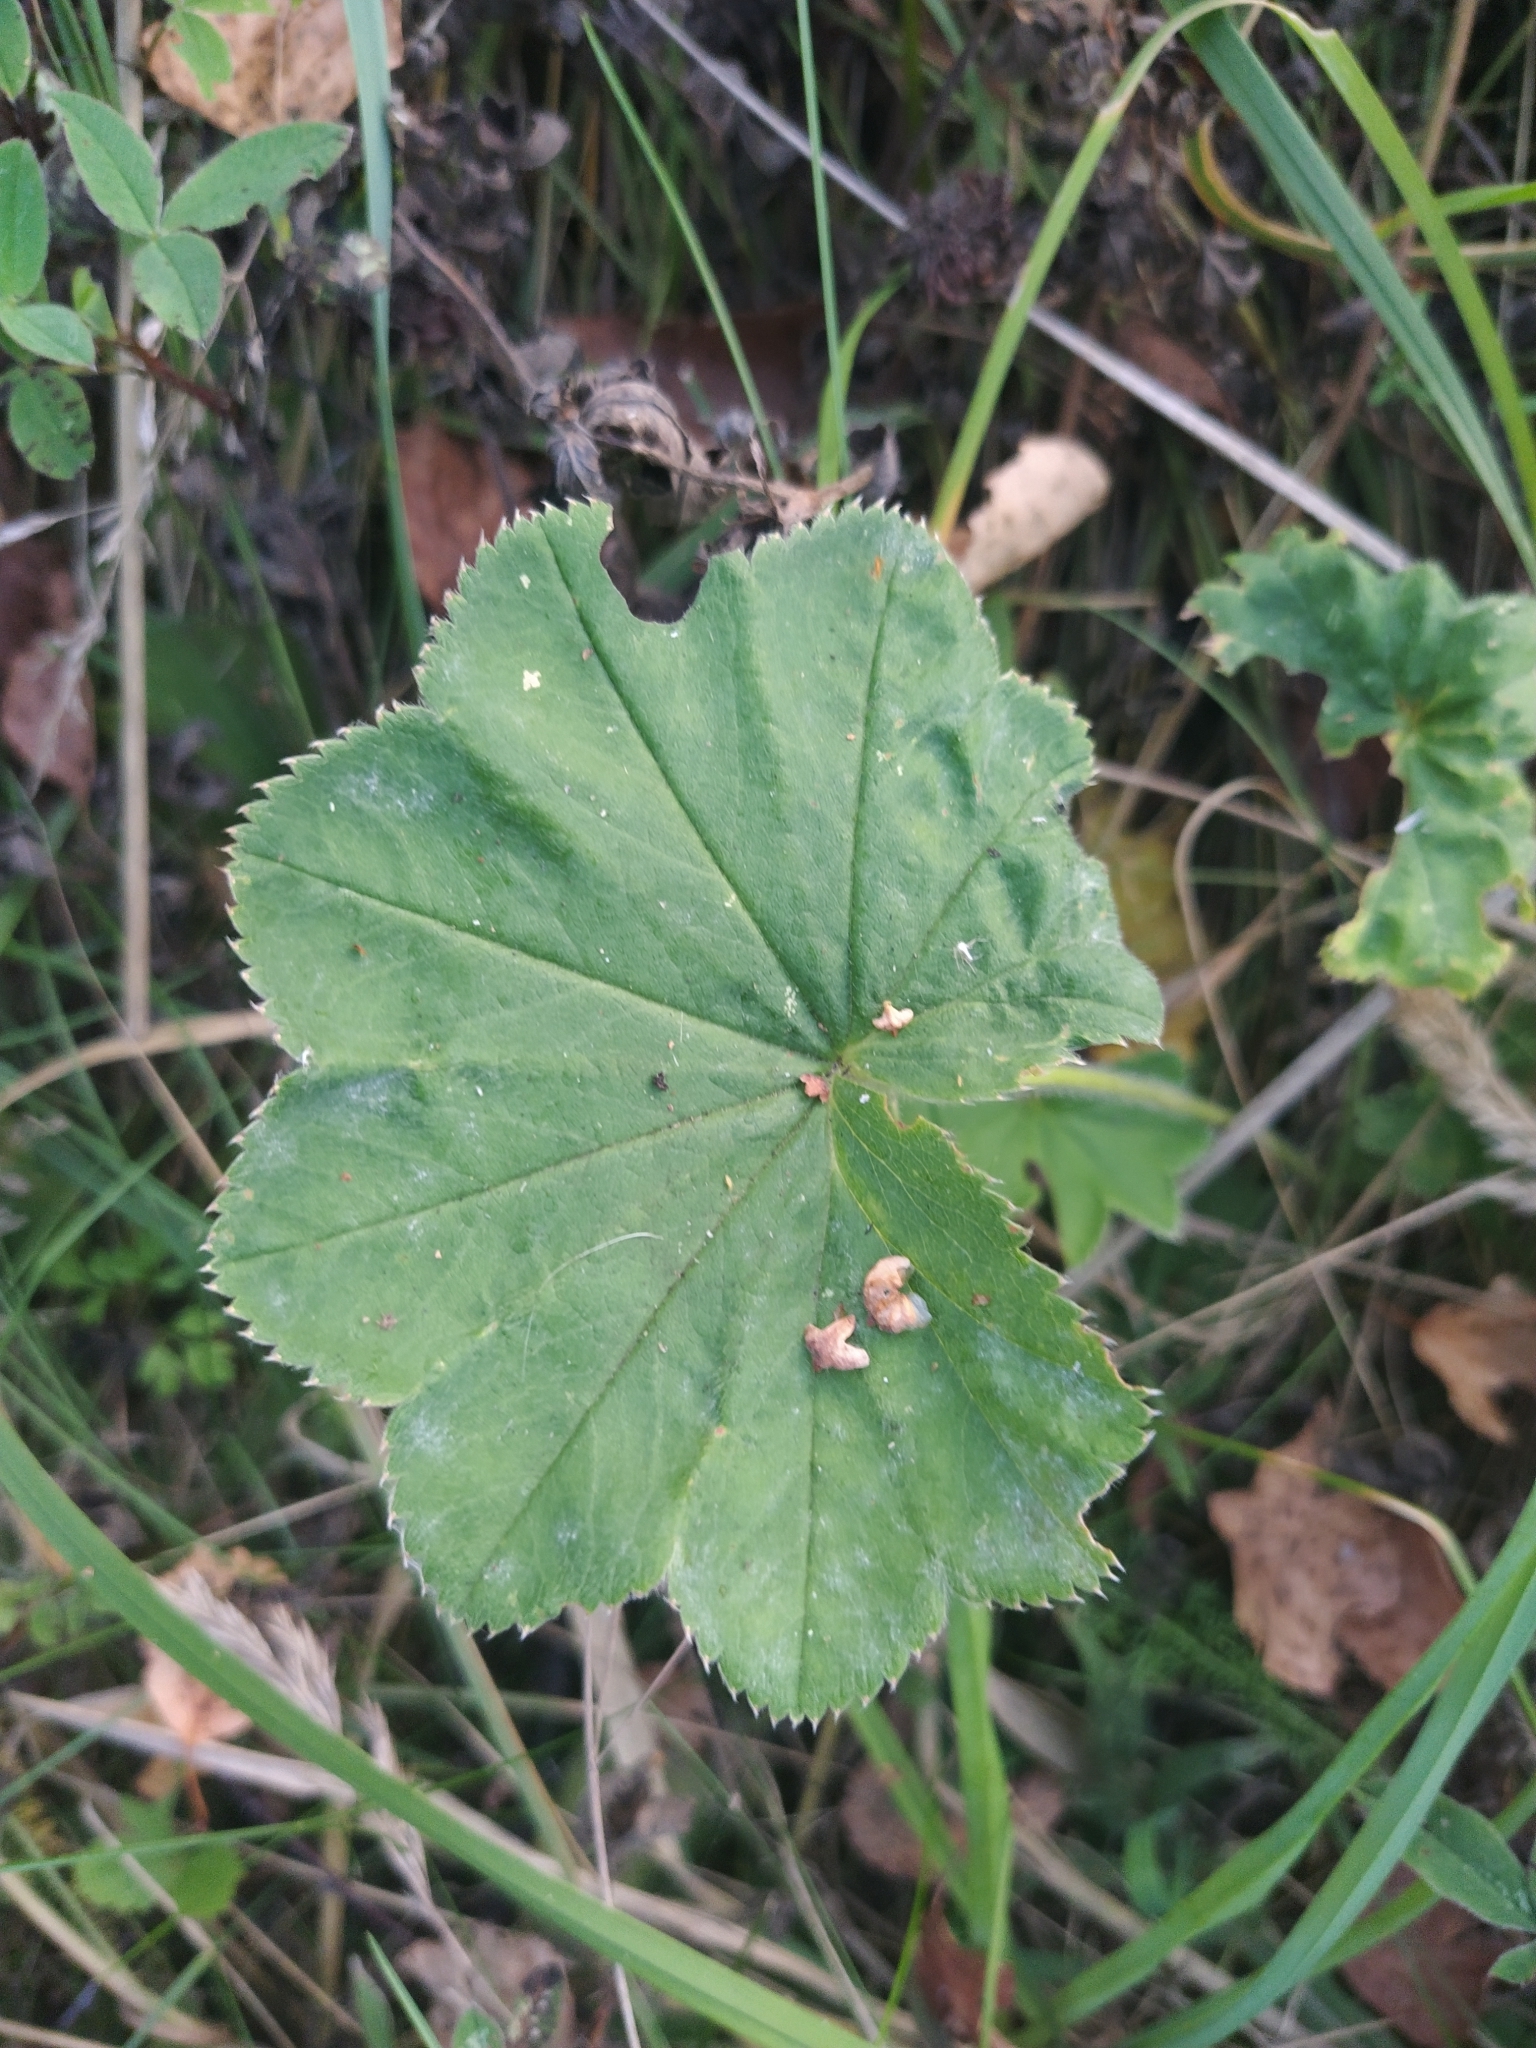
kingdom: Plantae
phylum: Tracheophyta
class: Magnoliopsida
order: Rosales
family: Rosaceae
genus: Alchemilla
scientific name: Alchemilla
